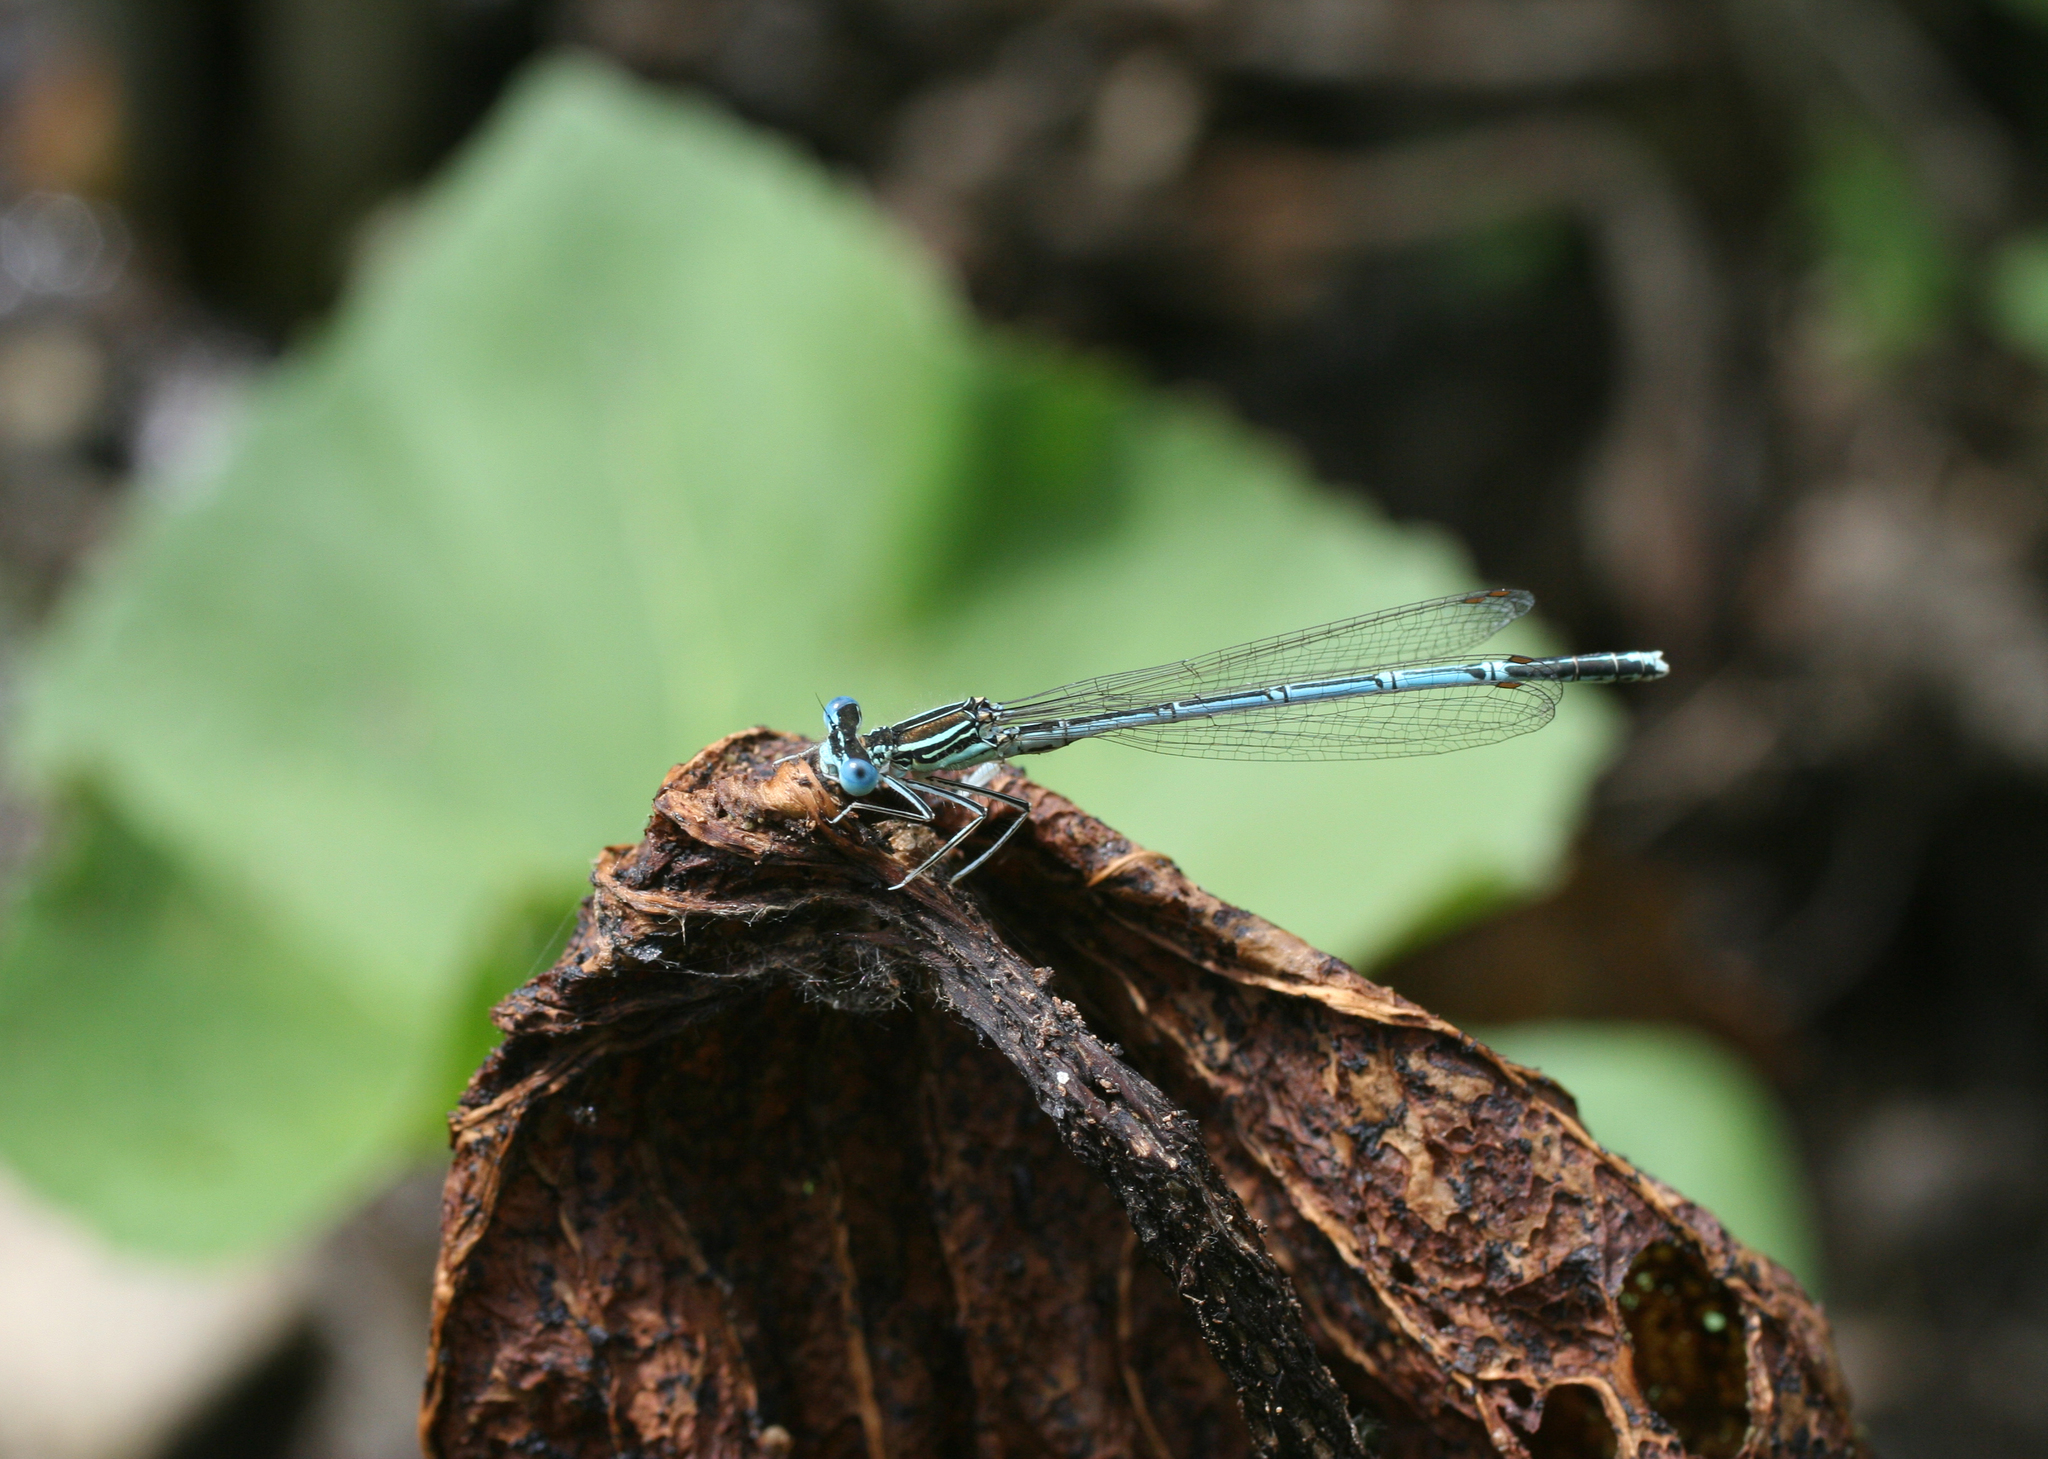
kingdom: Animalia
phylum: Arthropoda
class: Insecta
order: Odonata
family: Platycnemididae
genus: Platycnemis
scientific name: Platycnemis pennipes
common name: White-legged damselfly
